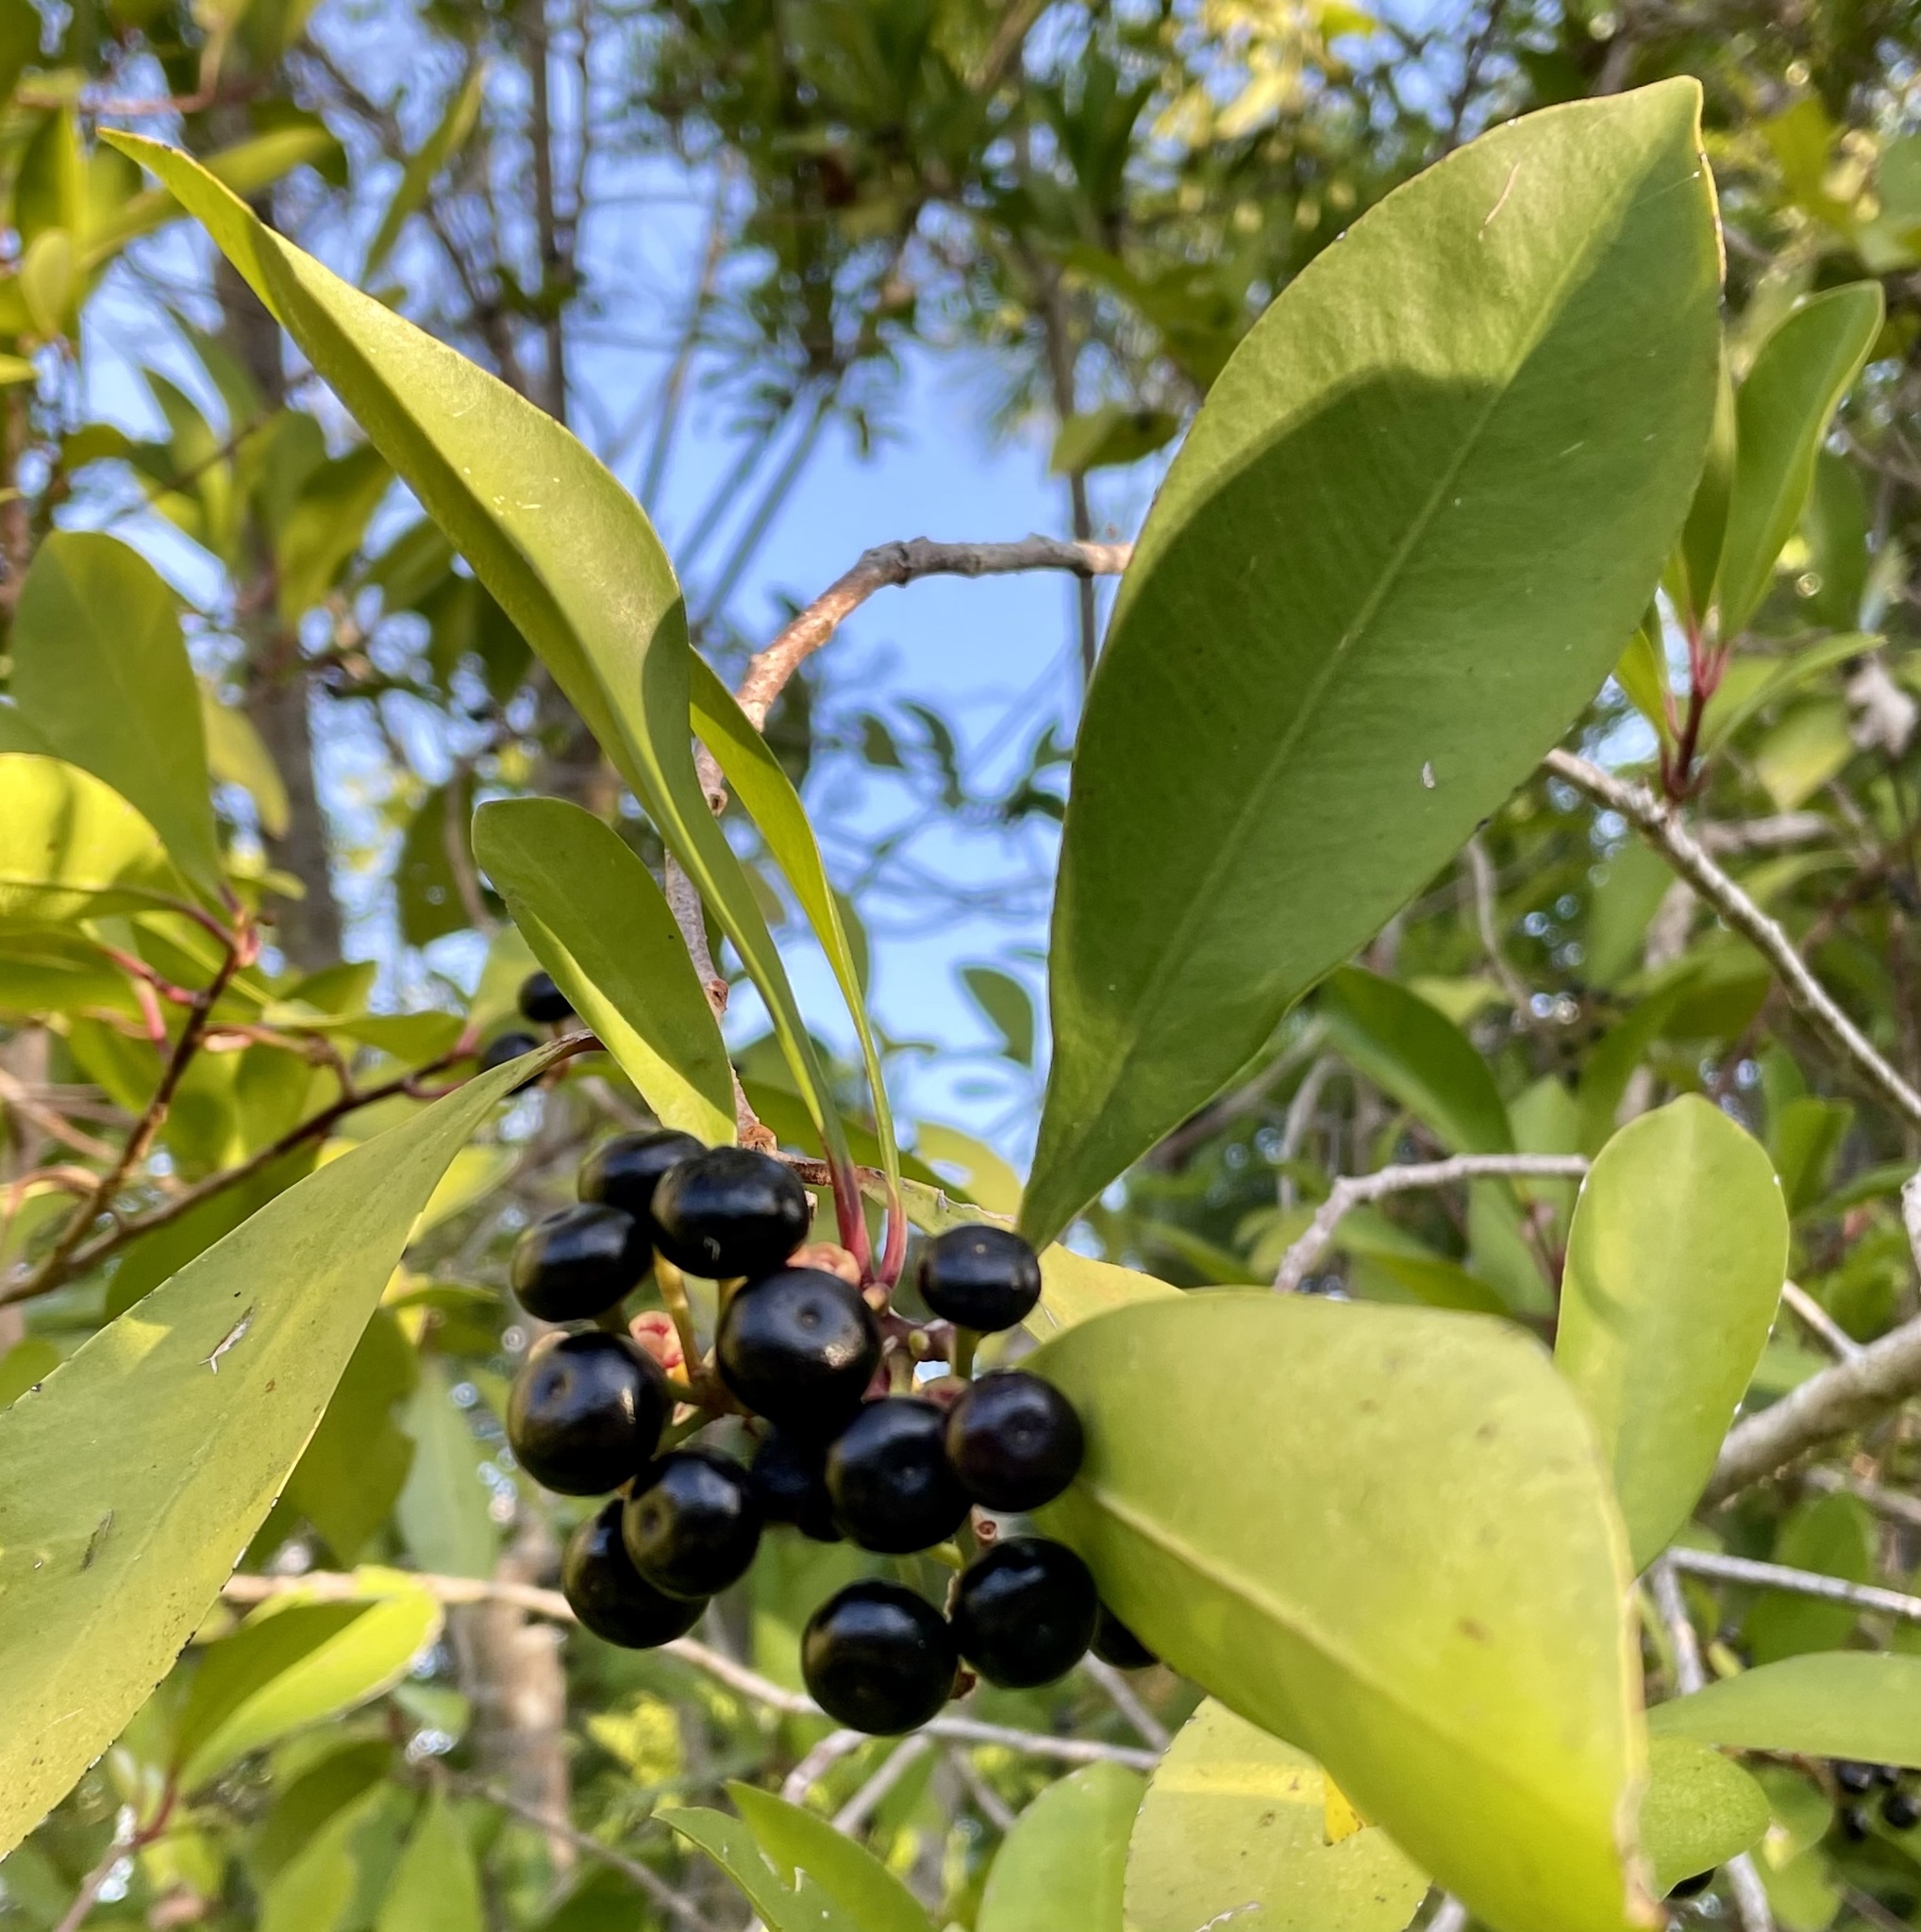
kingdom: Plantae
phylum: Tracheophyta
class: Magnoliopsida
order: Ericales
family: Primulaceae
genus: Ardisia
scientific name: Ardisia elliptica
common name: Shoebutton
